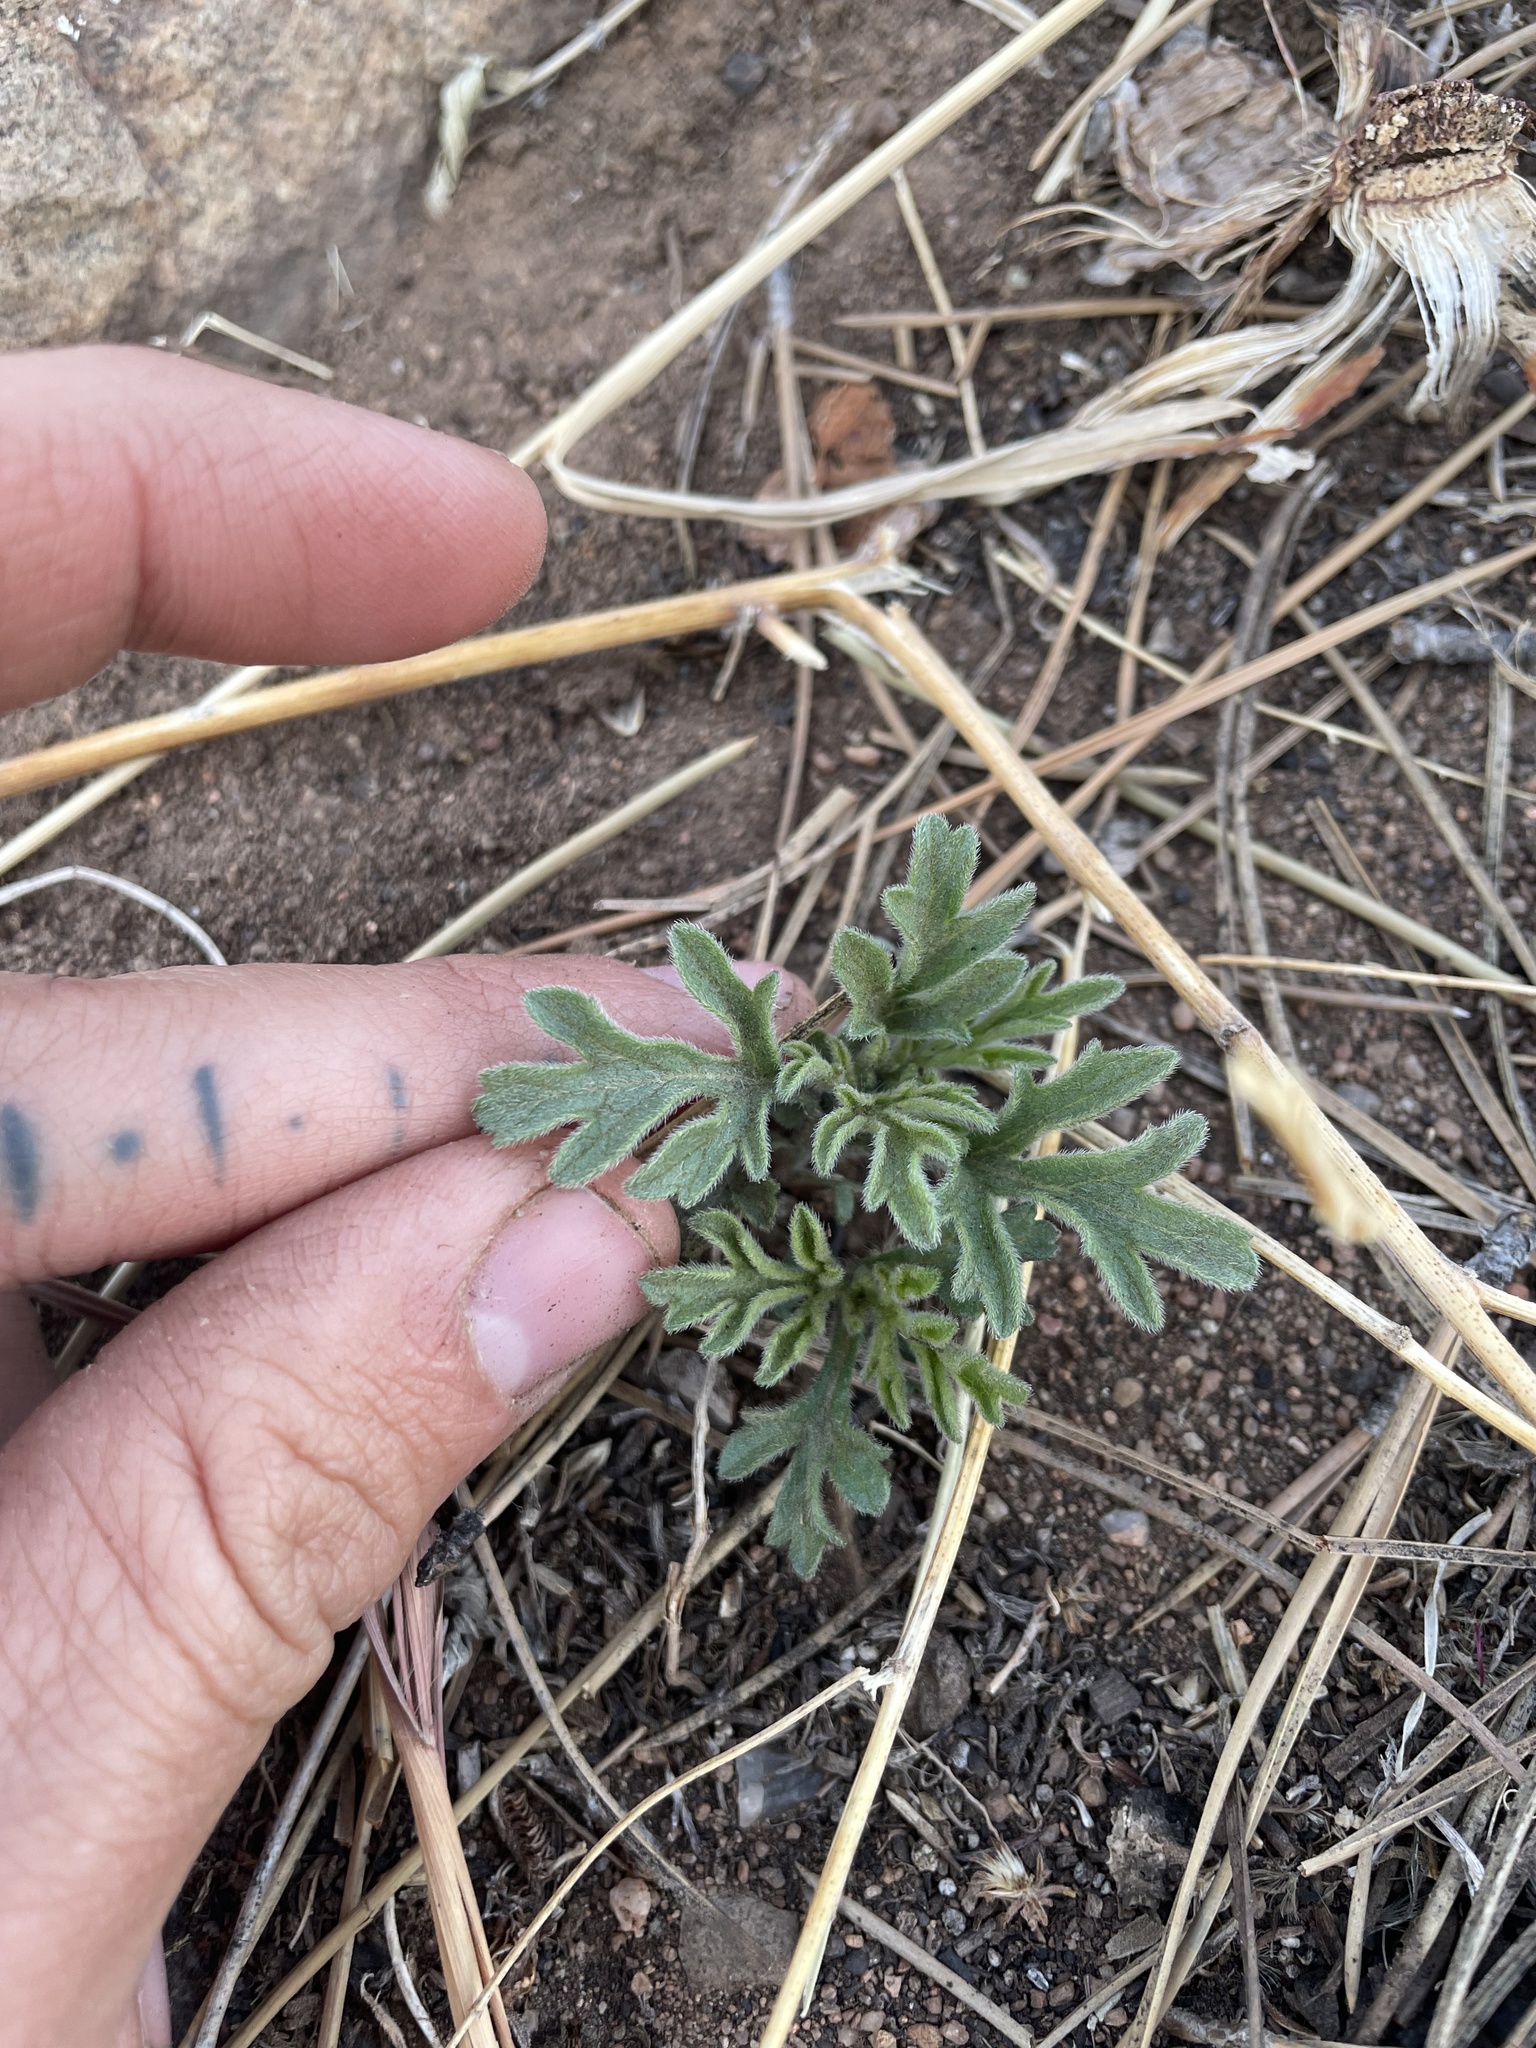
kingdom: Plantae
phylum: Tracheophyta
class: Magnoliopsida
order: Malvales
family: Malvaceae
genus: Sphaeralcea
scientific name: Sphaeralcea coccinea
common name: Moss-rose
